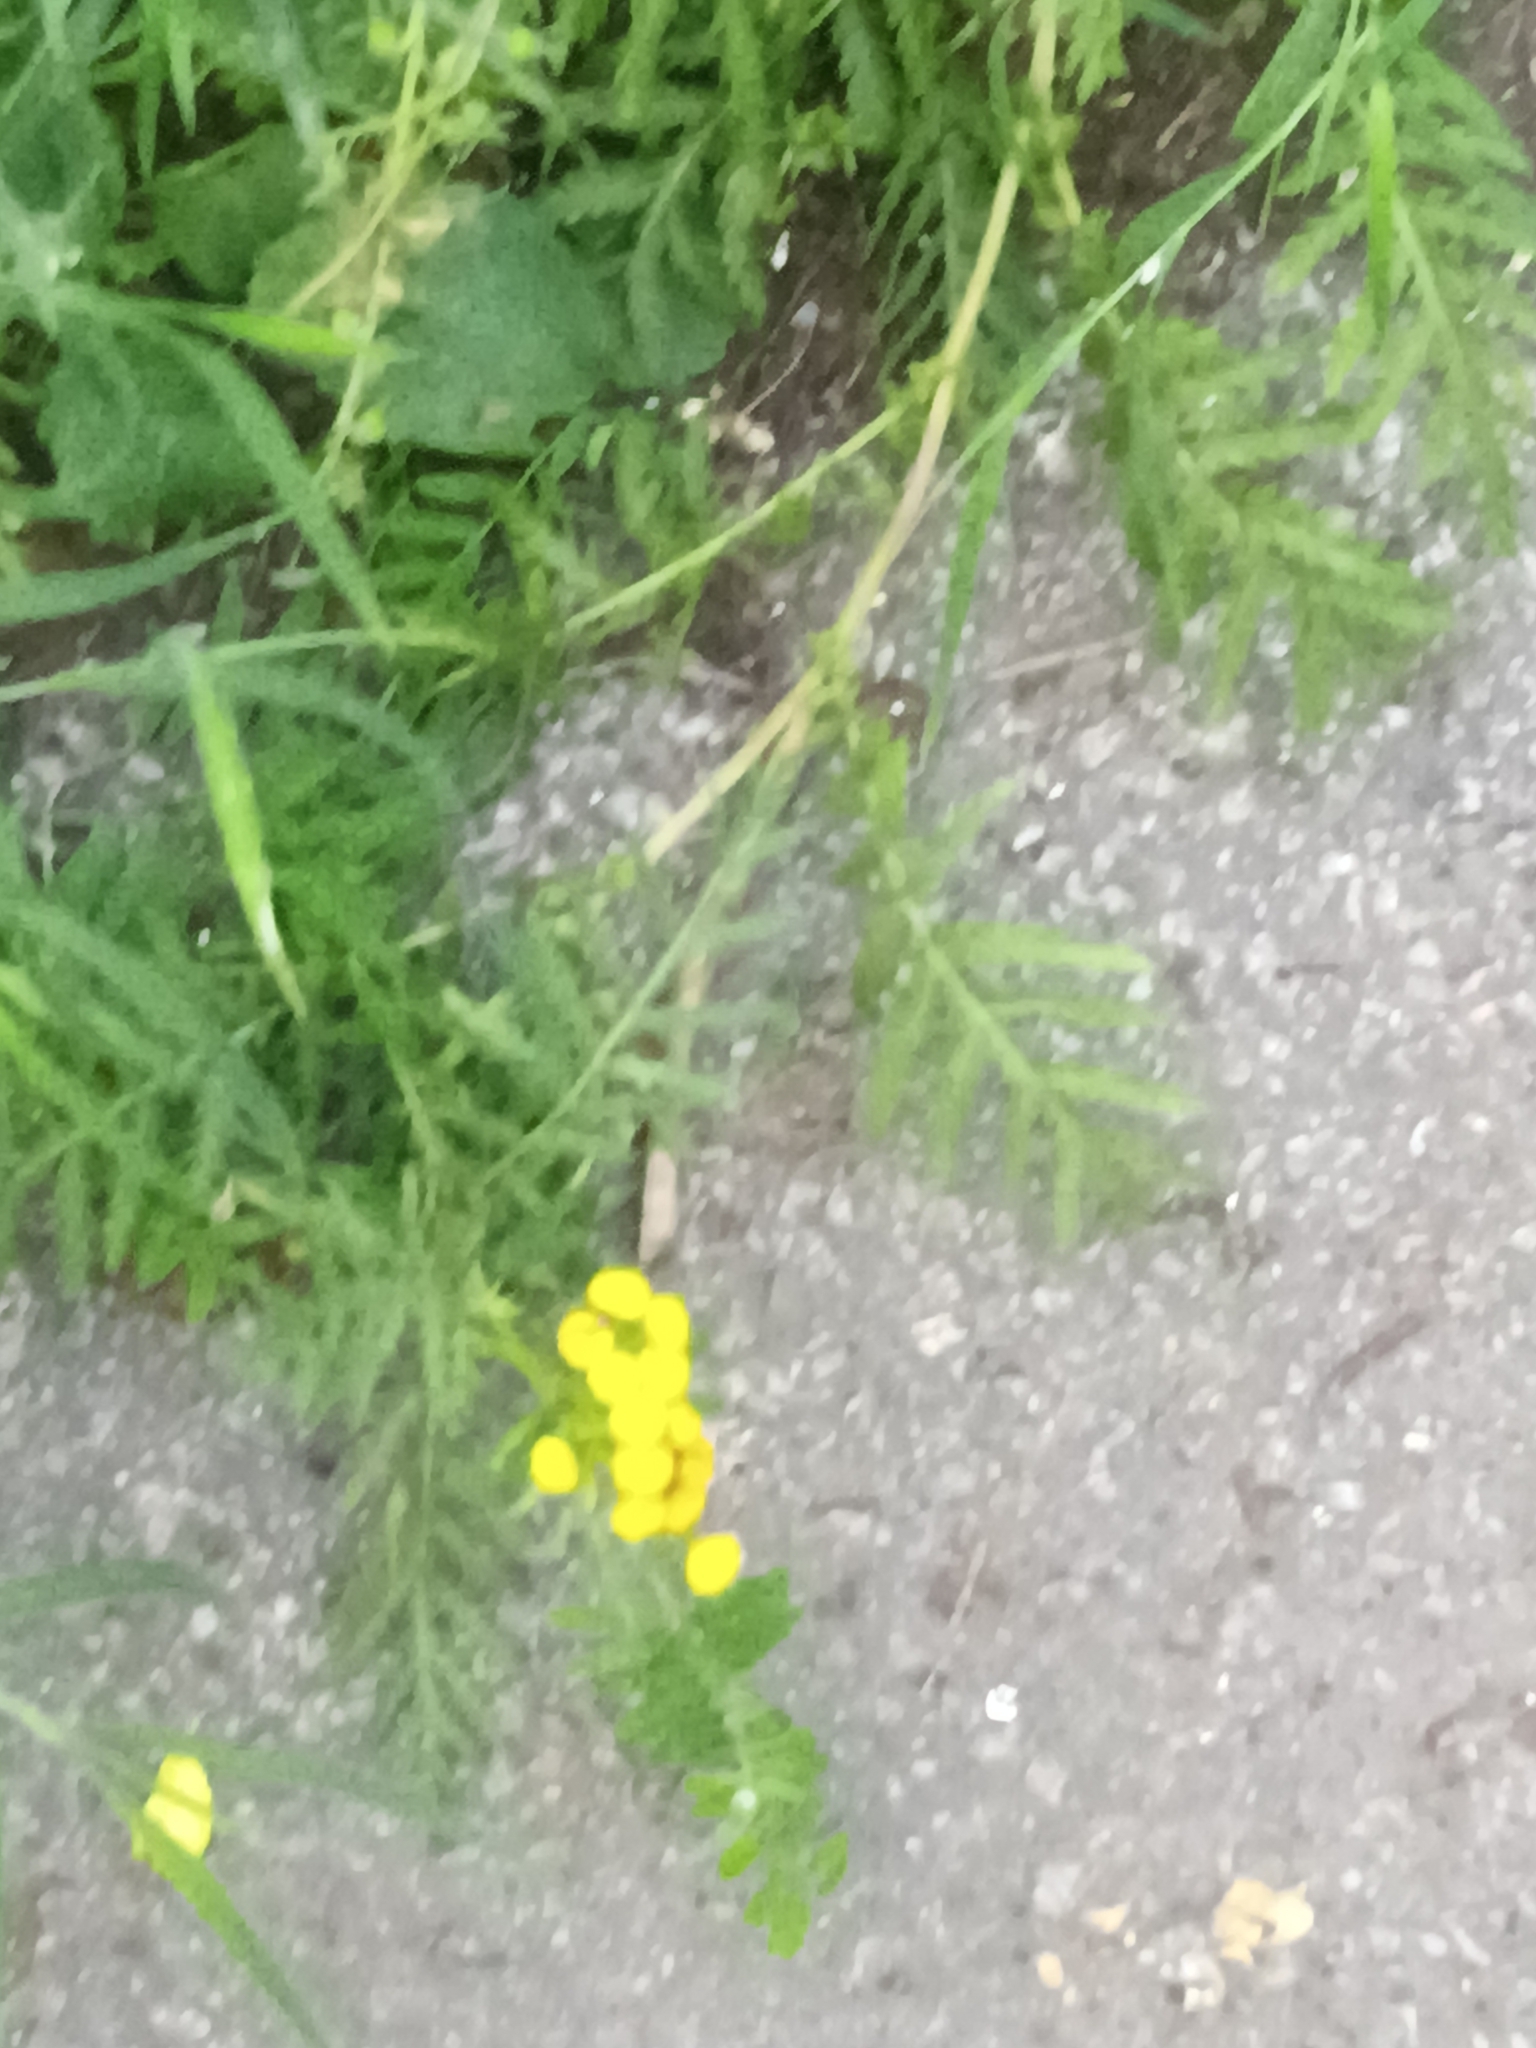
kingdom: Plantae
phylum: Tracheophyta
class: Magnoliopsida
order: Asterales
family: Asteraceae
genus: Tanacetum
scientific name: Tanacetum vulgare
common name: Common tansy
